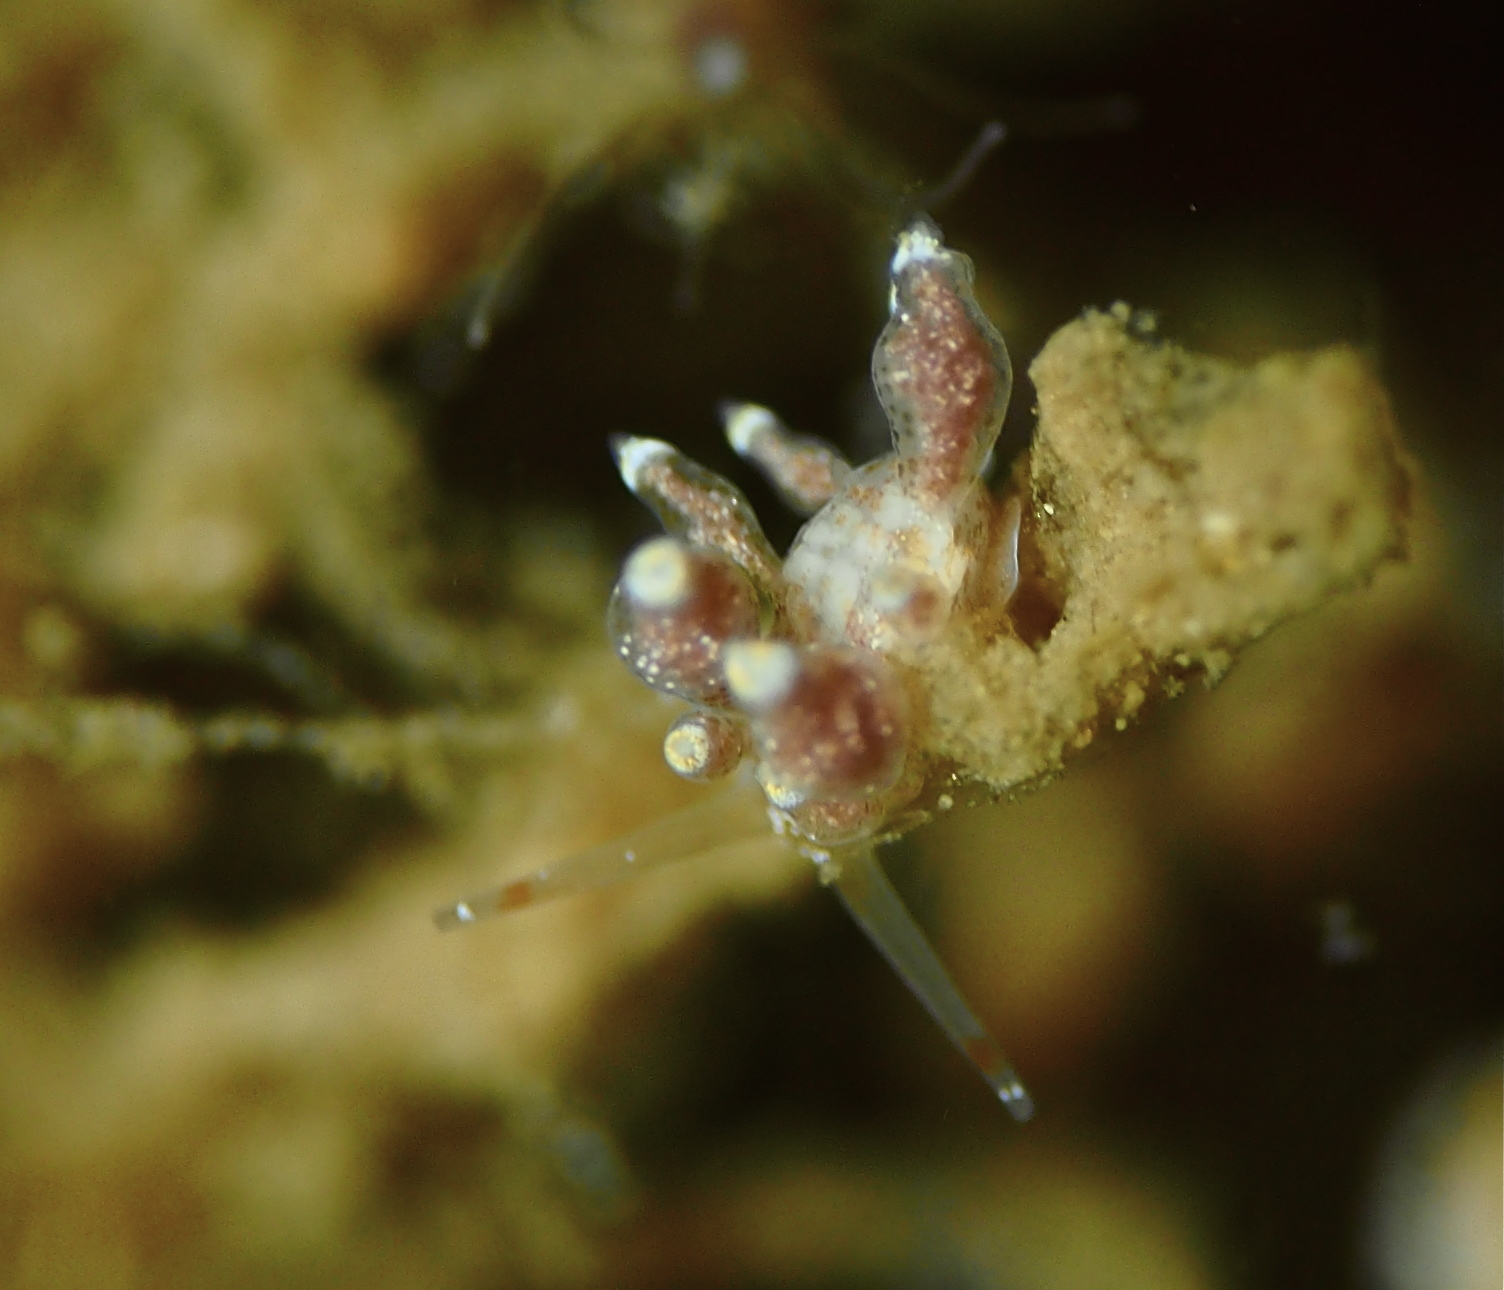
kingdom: Animalia
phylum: Mollusca
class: Gastropoda
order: Nudibranchia
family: Eubranchidae
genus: Eubranchus
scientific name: Eubranchus exiguus
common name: Balloon aeolis
